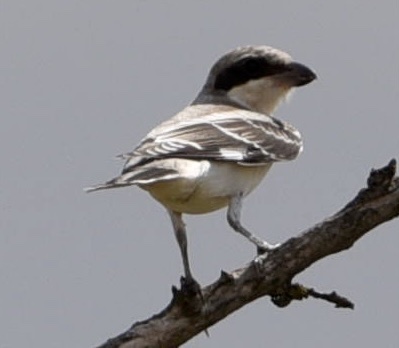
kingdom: Animalia
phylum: Chordata
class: Aves
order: Passeriformes
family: Laniidae
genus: Lanius
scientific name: Lanius minor
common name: Lesser grey shrike
